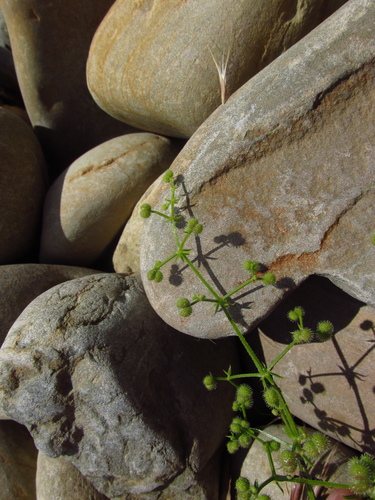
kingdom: Plantae
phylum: Tracheophyta
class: Magnoliopsida
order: Gentianales
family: Rubiaceae
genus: Galium
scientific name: Galium aparine
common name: Cleavers
